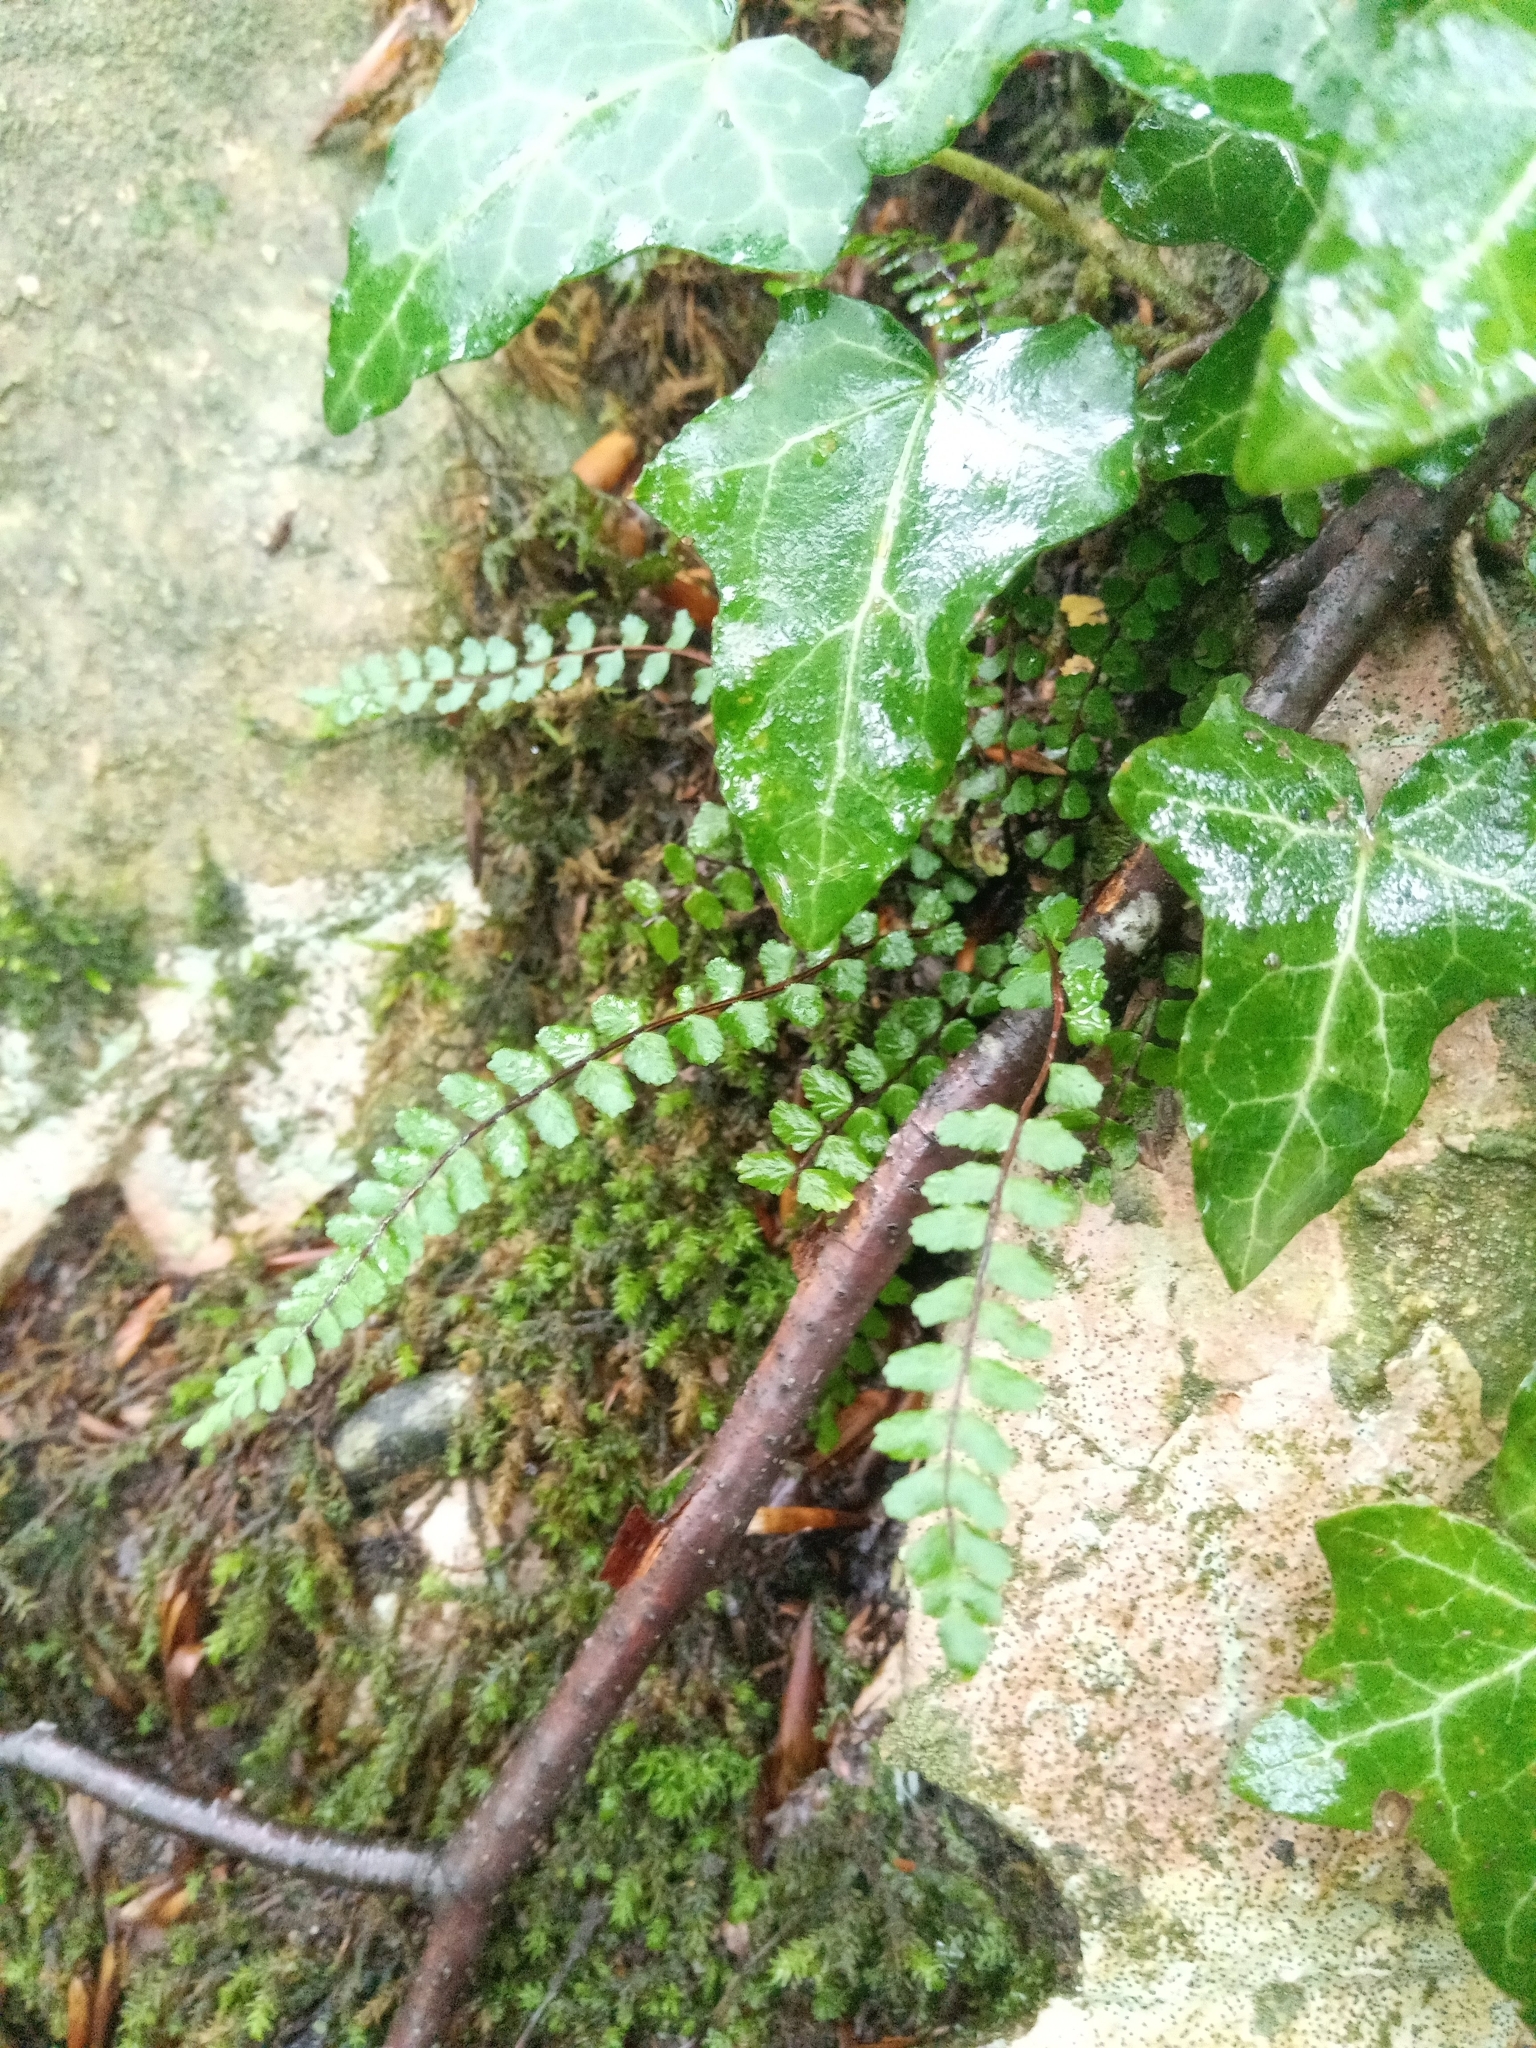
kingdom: Plantae
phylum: Tracheophyta
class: Polypodiopsida
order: Polypodiales
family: Aspleniaceae
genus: Asplenium
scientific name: Asplenium trichomanes
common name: Maidenhair spleenwort
